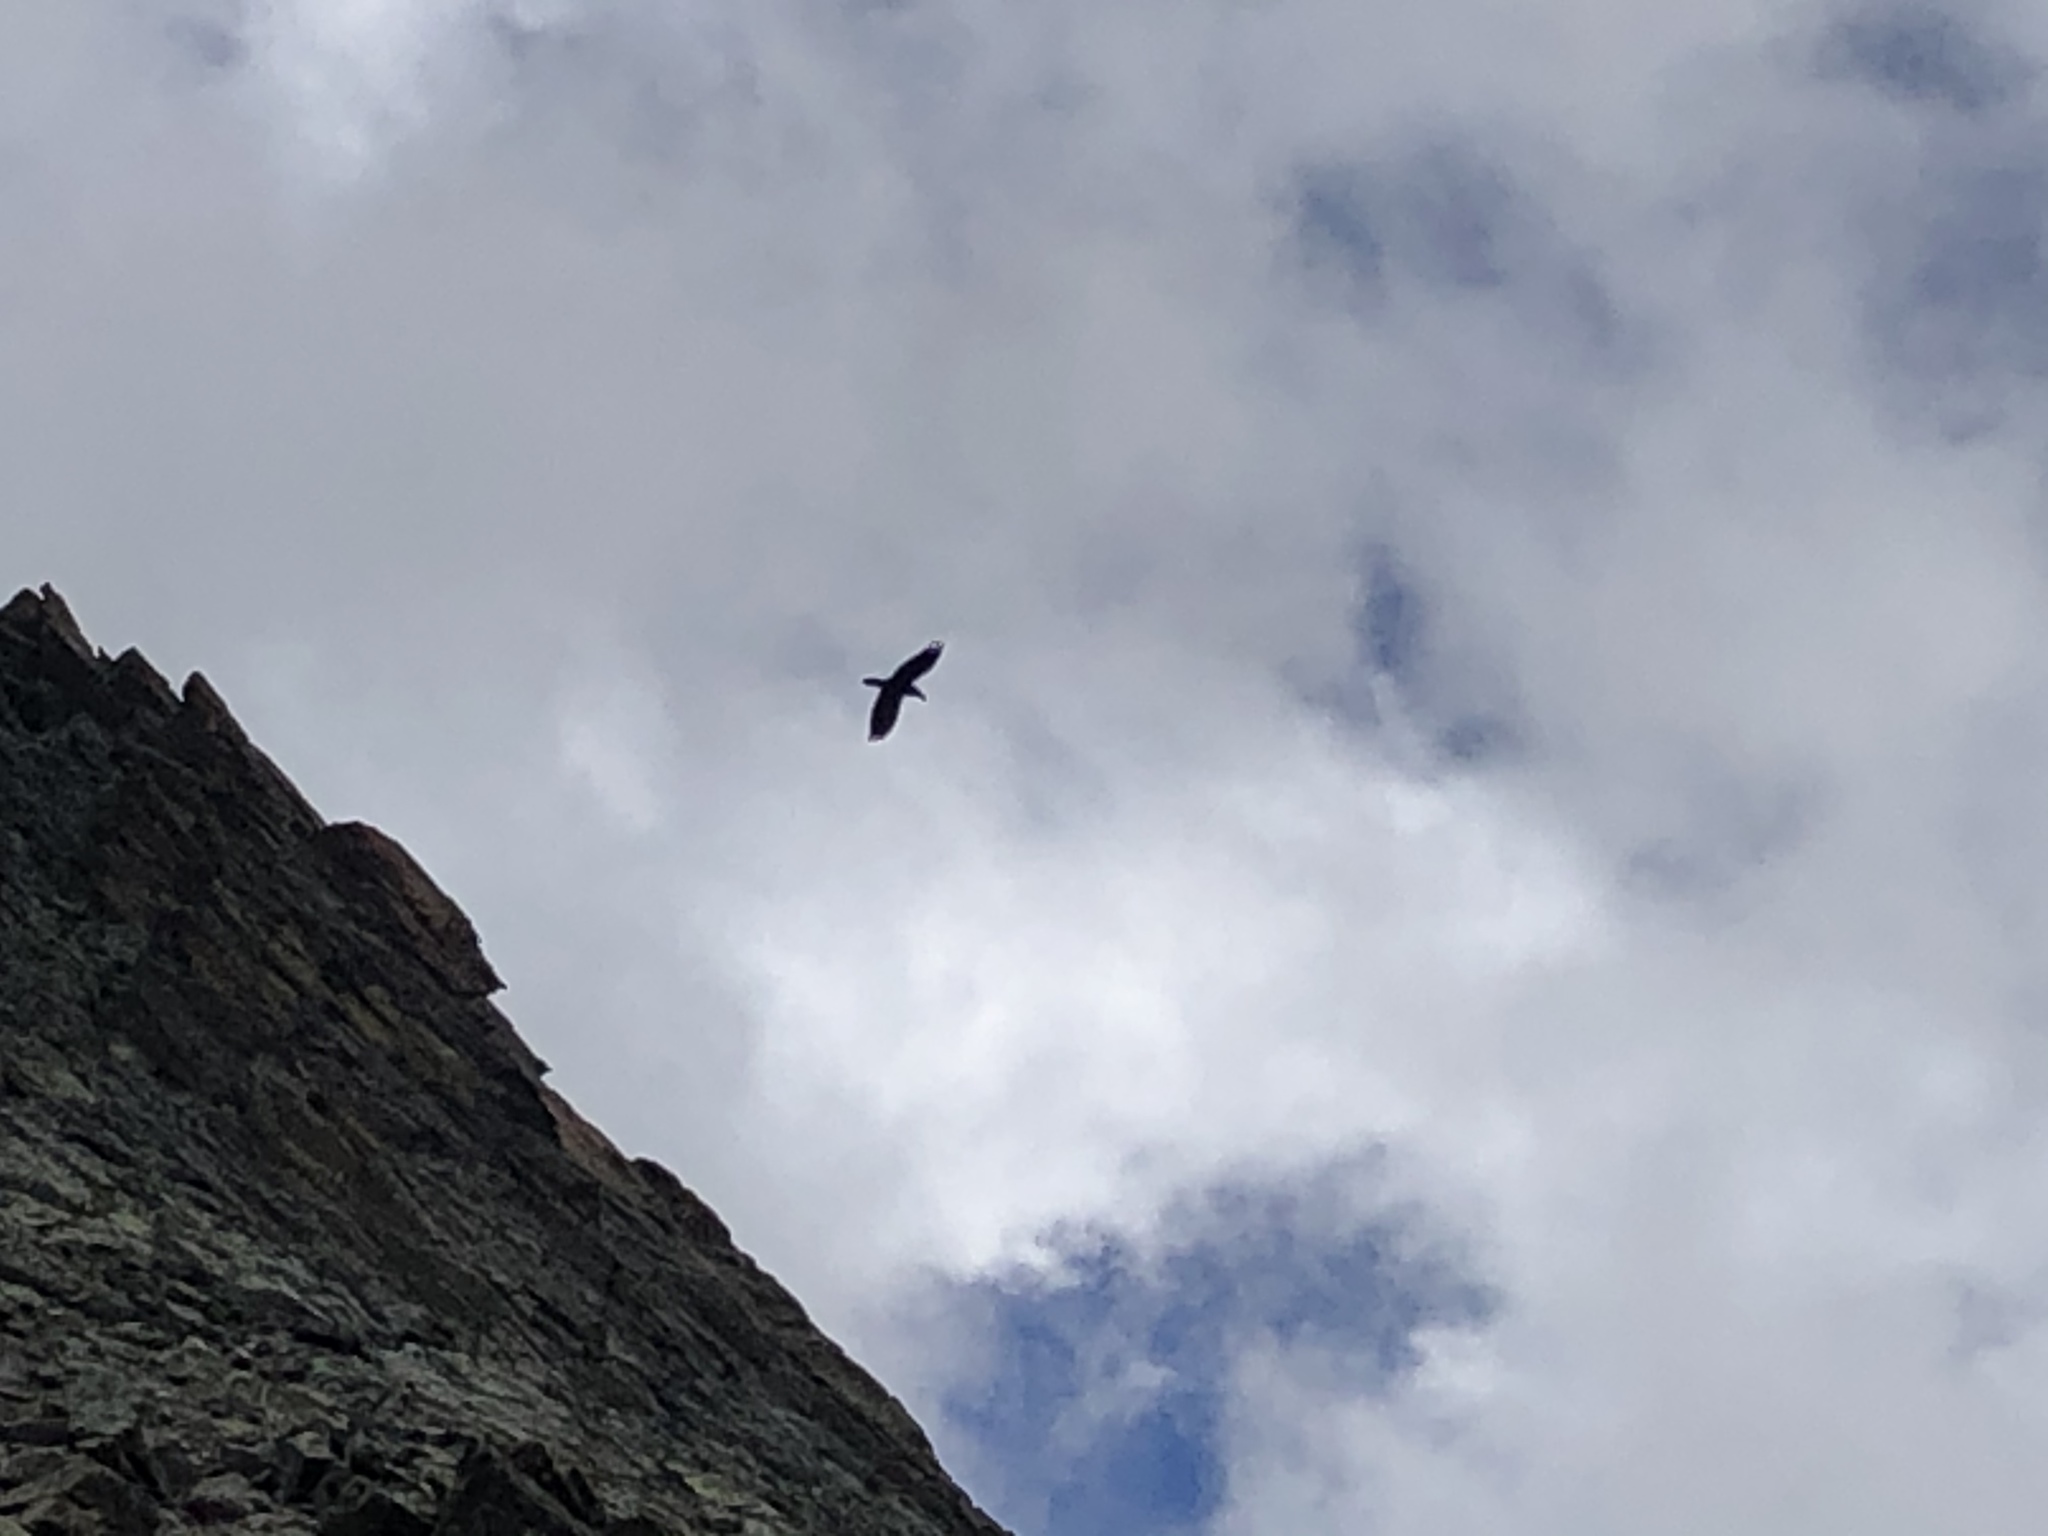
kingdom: Animalia
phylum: Chordata
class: Aves
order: Passeriformes
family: Corvidae
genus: Corvus
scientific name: Corvus corax
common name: Common raven
